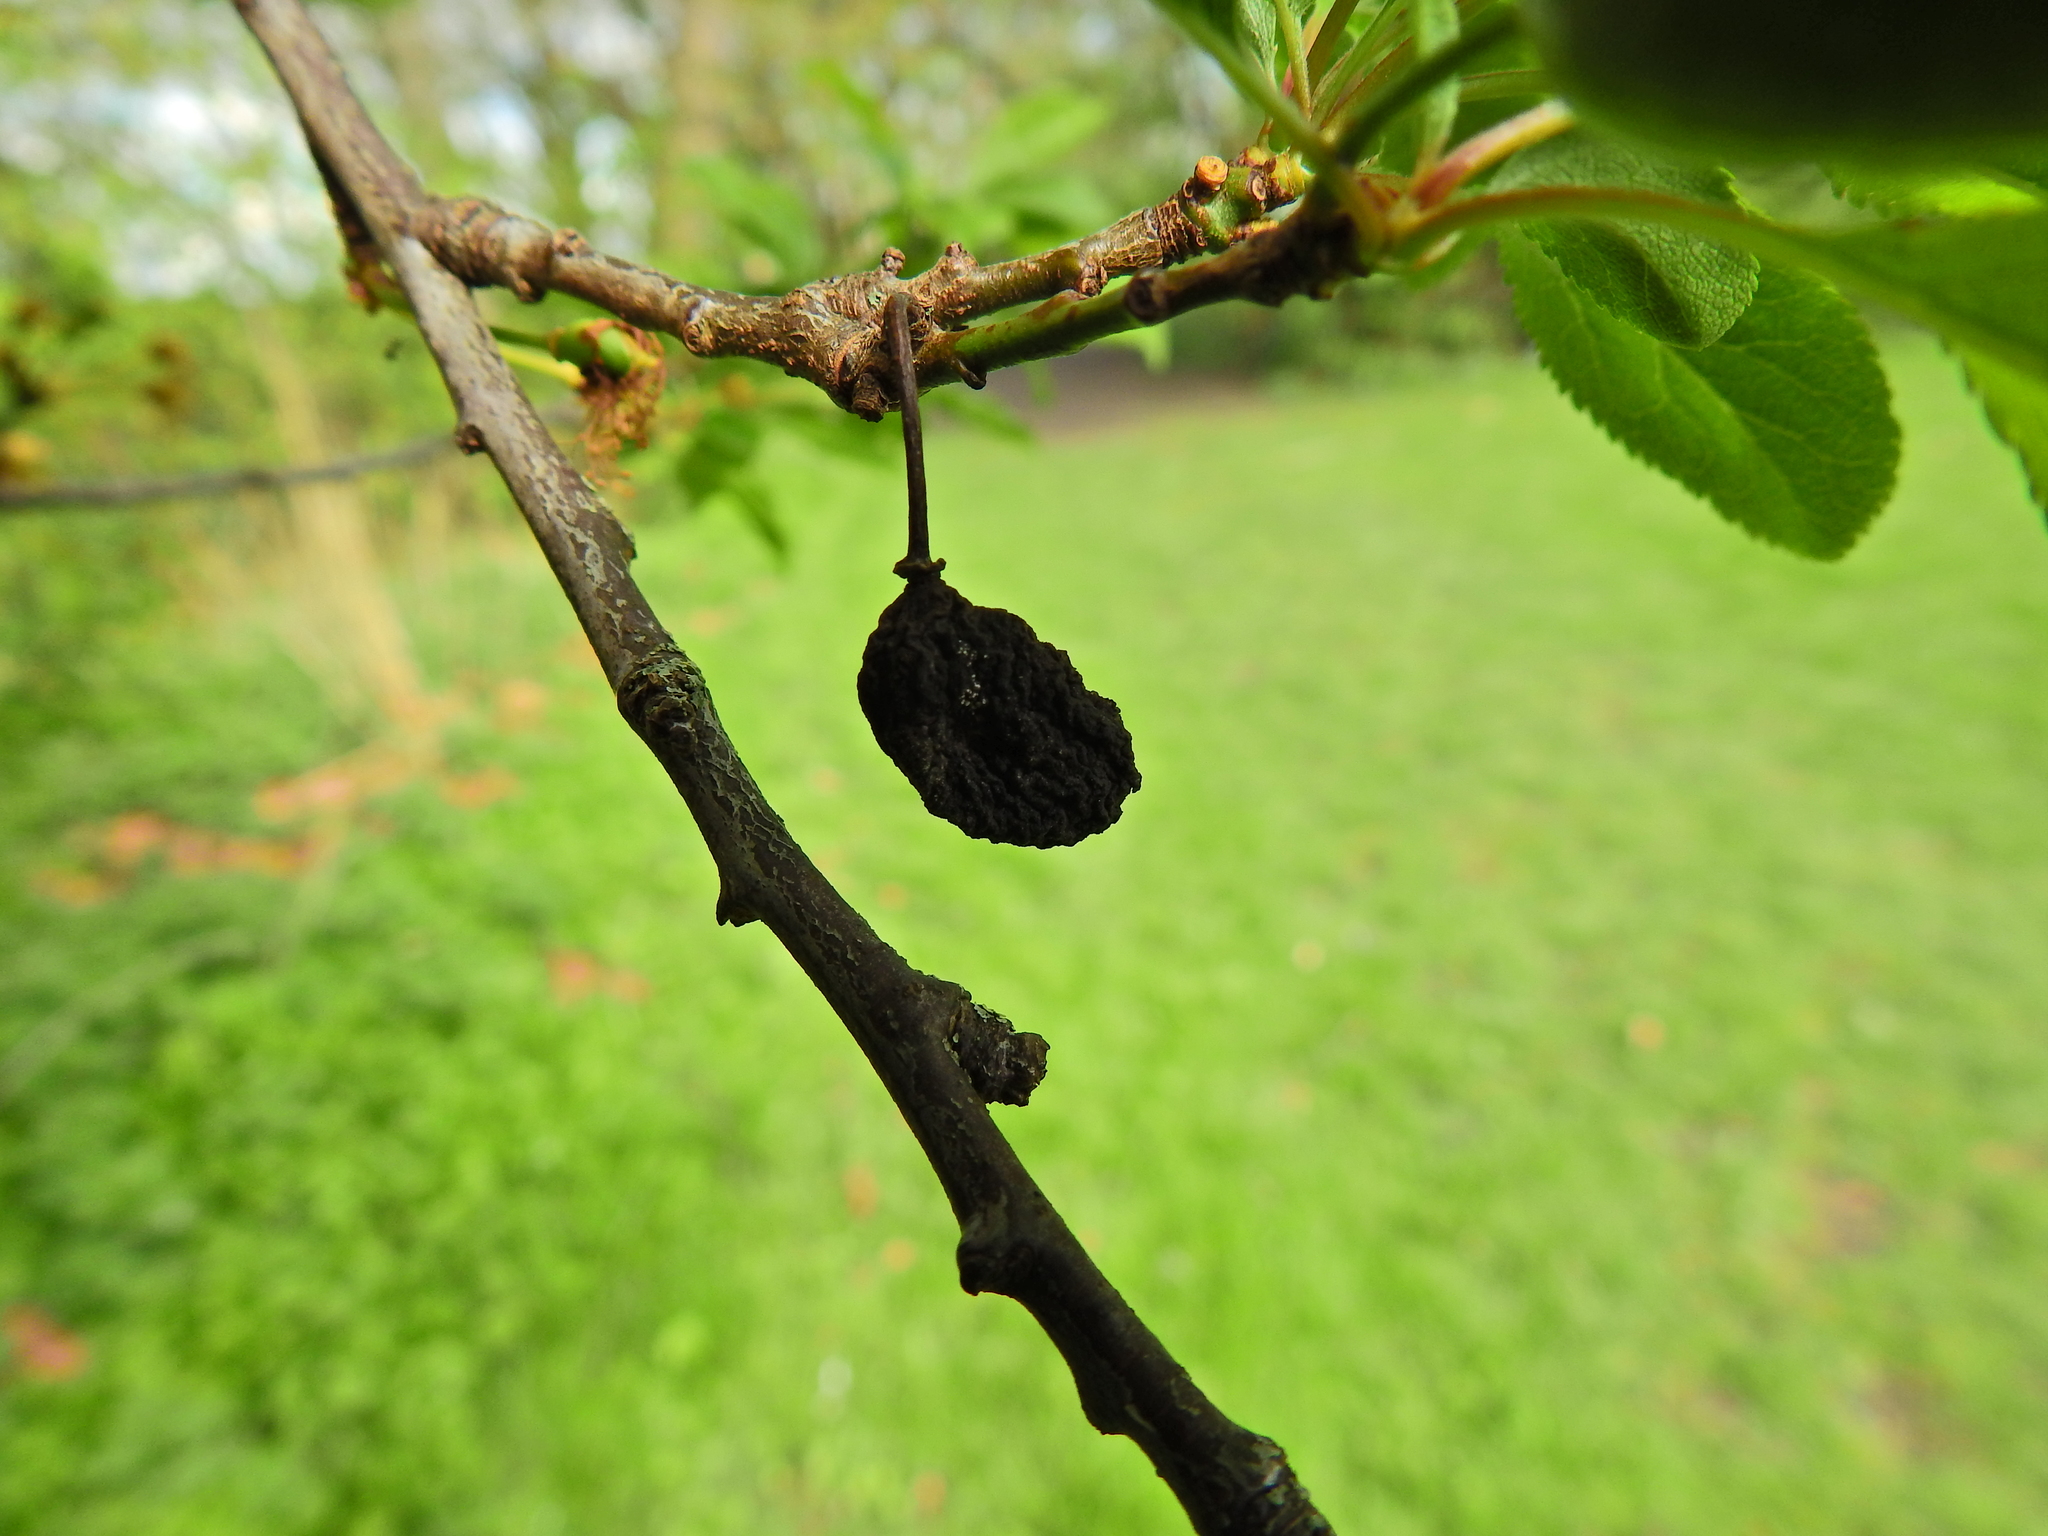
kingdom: Fungi
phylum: Ascomycota
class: Taphrinomycetes
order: Taphrinales
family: Taphrinaceae
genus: Taphrina
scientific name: Taphrina pruni
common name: Pocket plum
